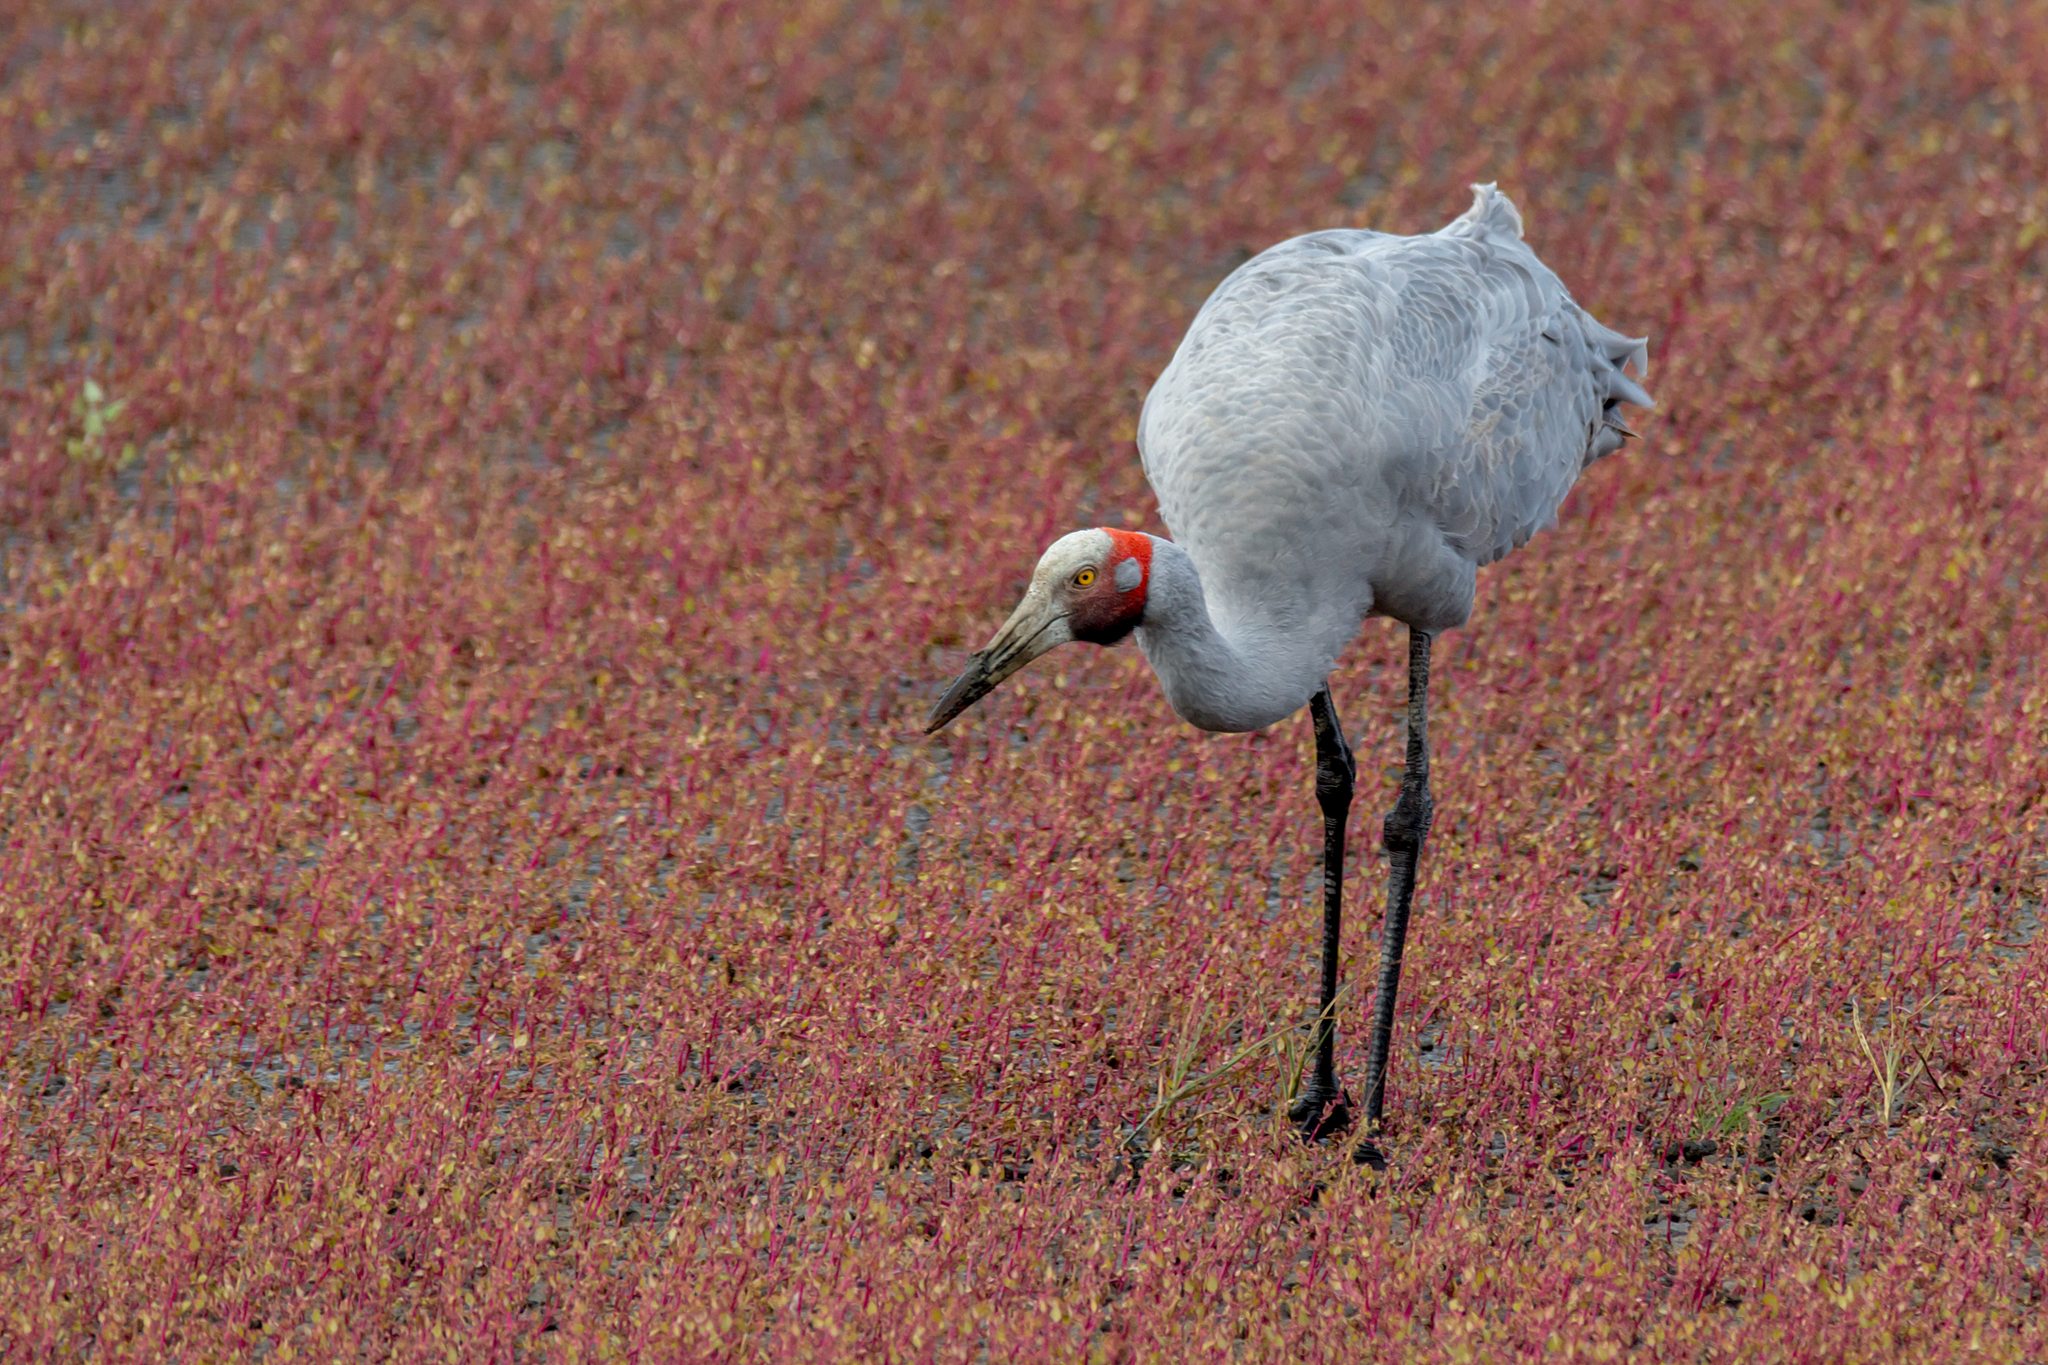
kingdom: Animalia
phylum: Chordata
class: Aves
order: Gruiformes
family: Gruidae
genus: Grus
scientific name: Grus rubicunda
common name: Brolga
